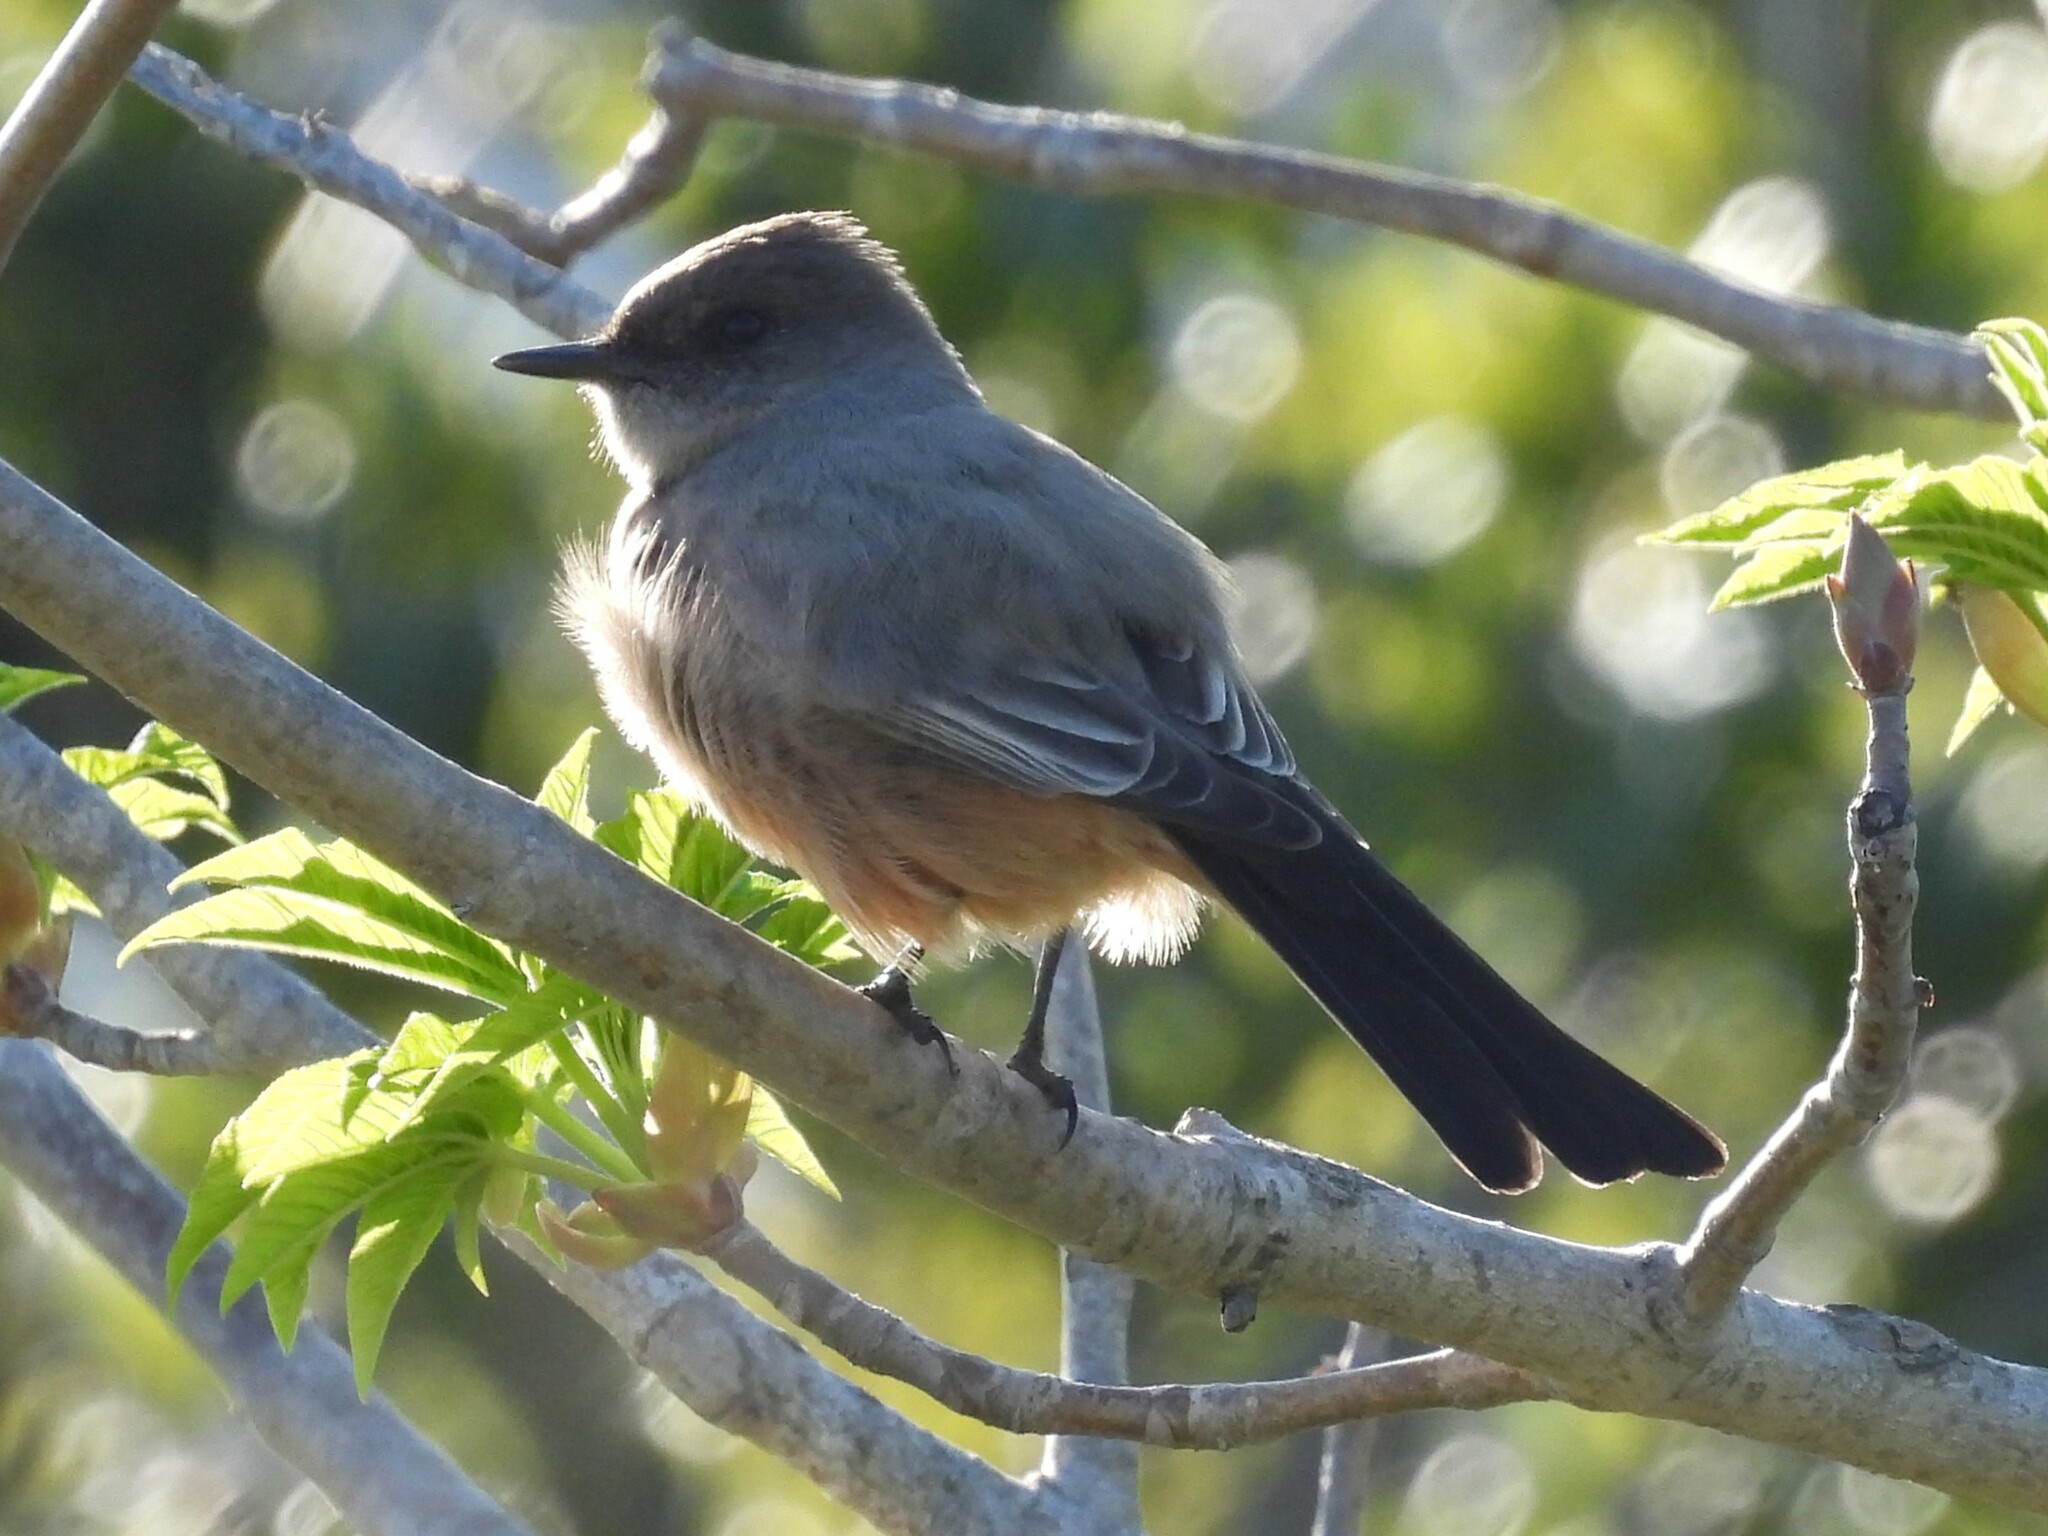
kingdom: Animalia
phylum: Chordata
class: Aves
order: Passeriformes
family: Tyrannidae
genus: Sayornis
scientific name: Sayornis saya
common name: Say's phoebe
